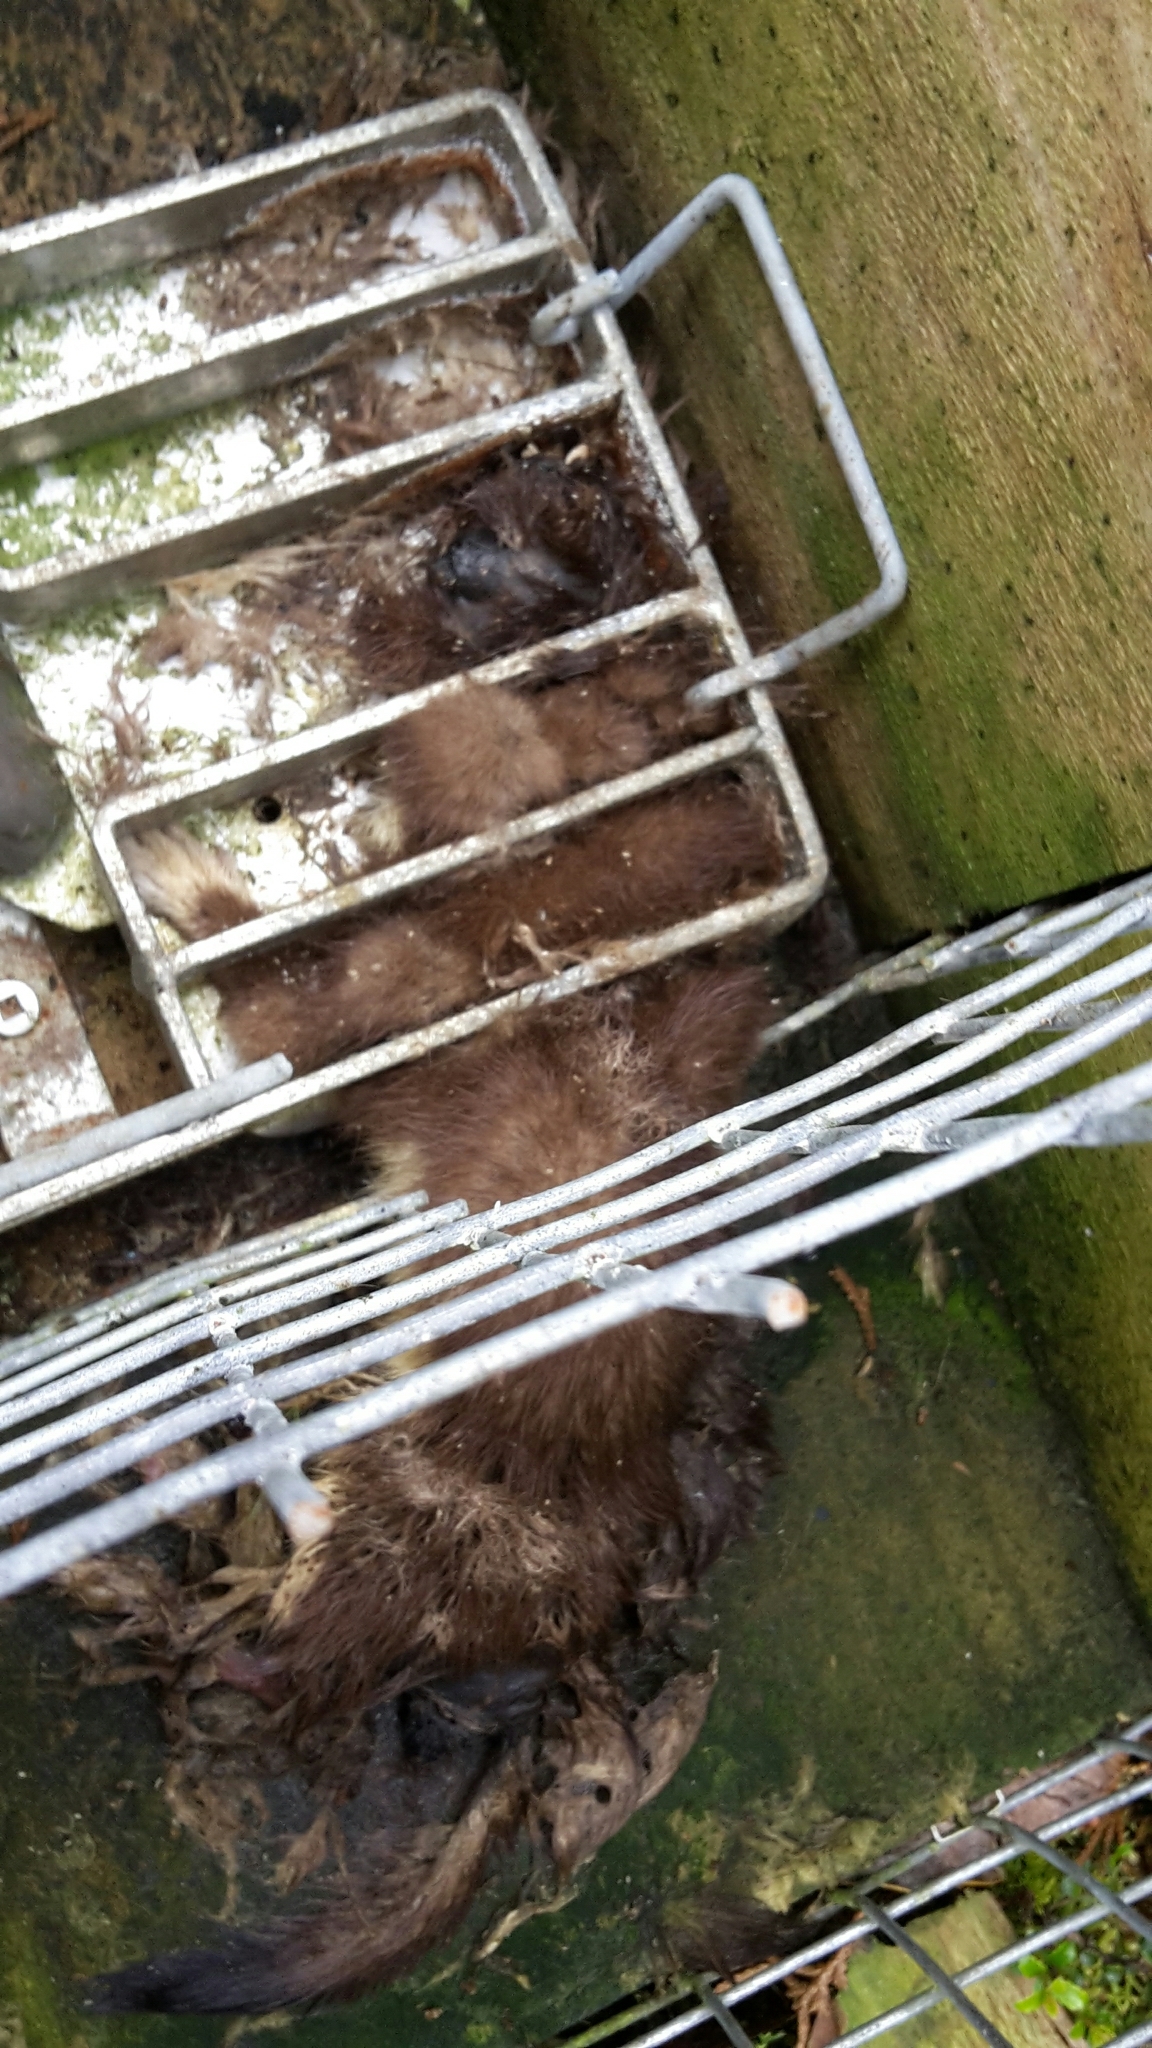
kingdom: Animalia
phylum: Chordata
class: Mammalia
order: Carnivora
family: Mustelidae
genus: Mustela
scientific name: Mustela erminea
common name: Stoat
